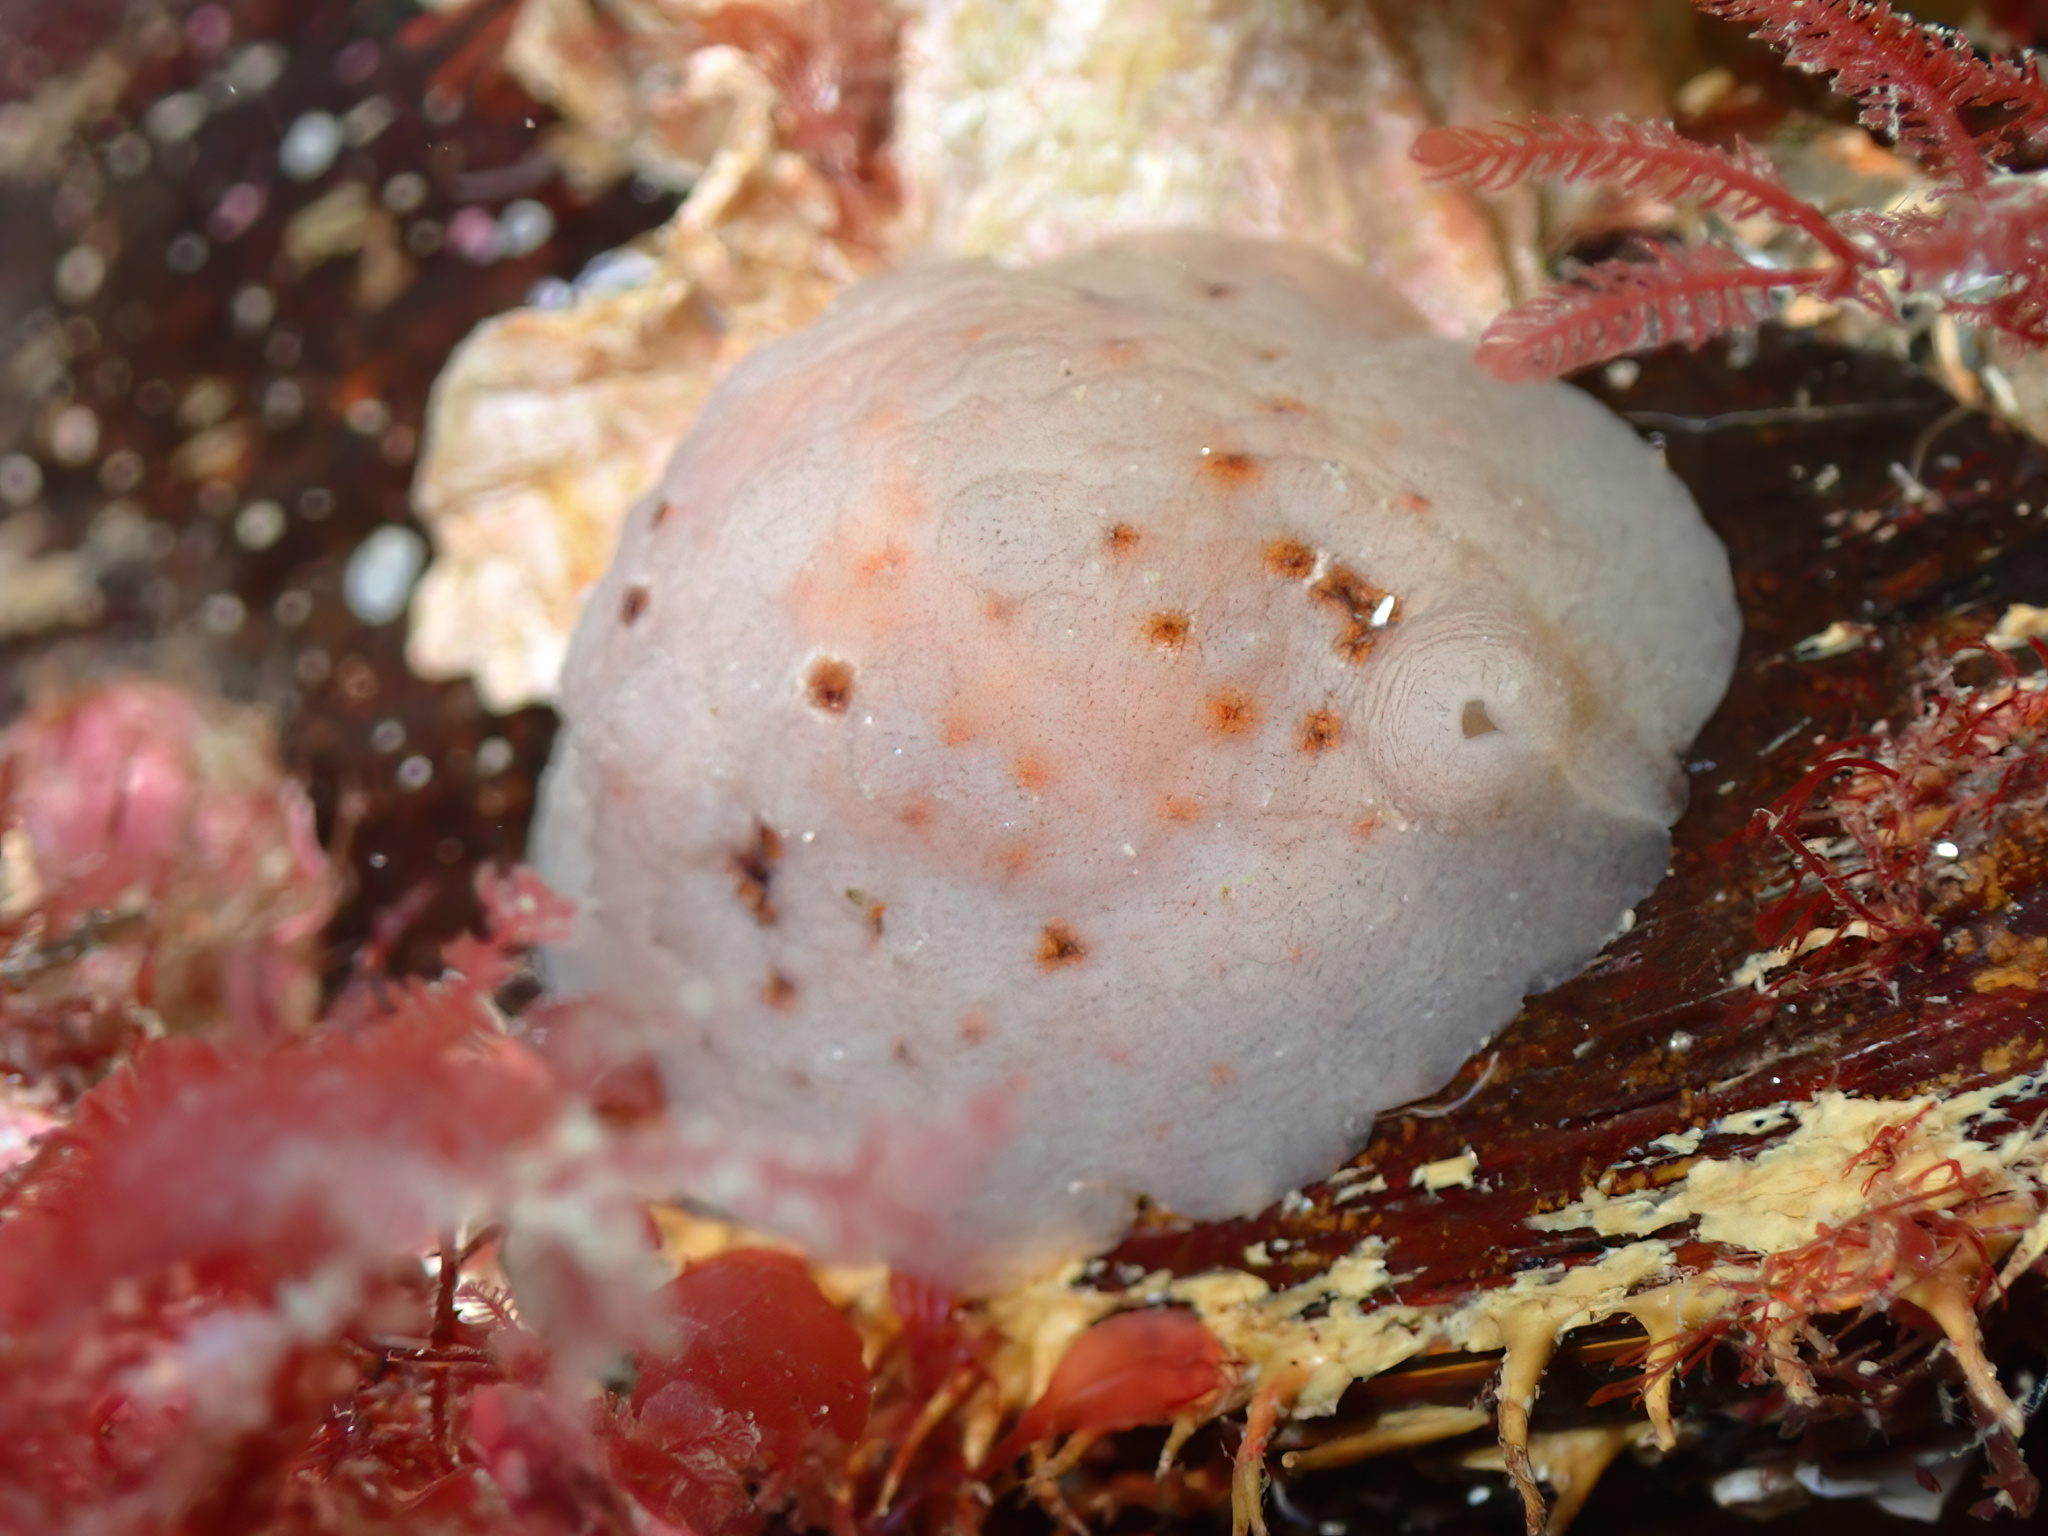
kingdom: Animalia
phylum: Mollusca
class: Gastropoda
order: Littorinimorpha
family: Velutinidae
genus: Marsenia
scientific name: Marsenia perspicua
